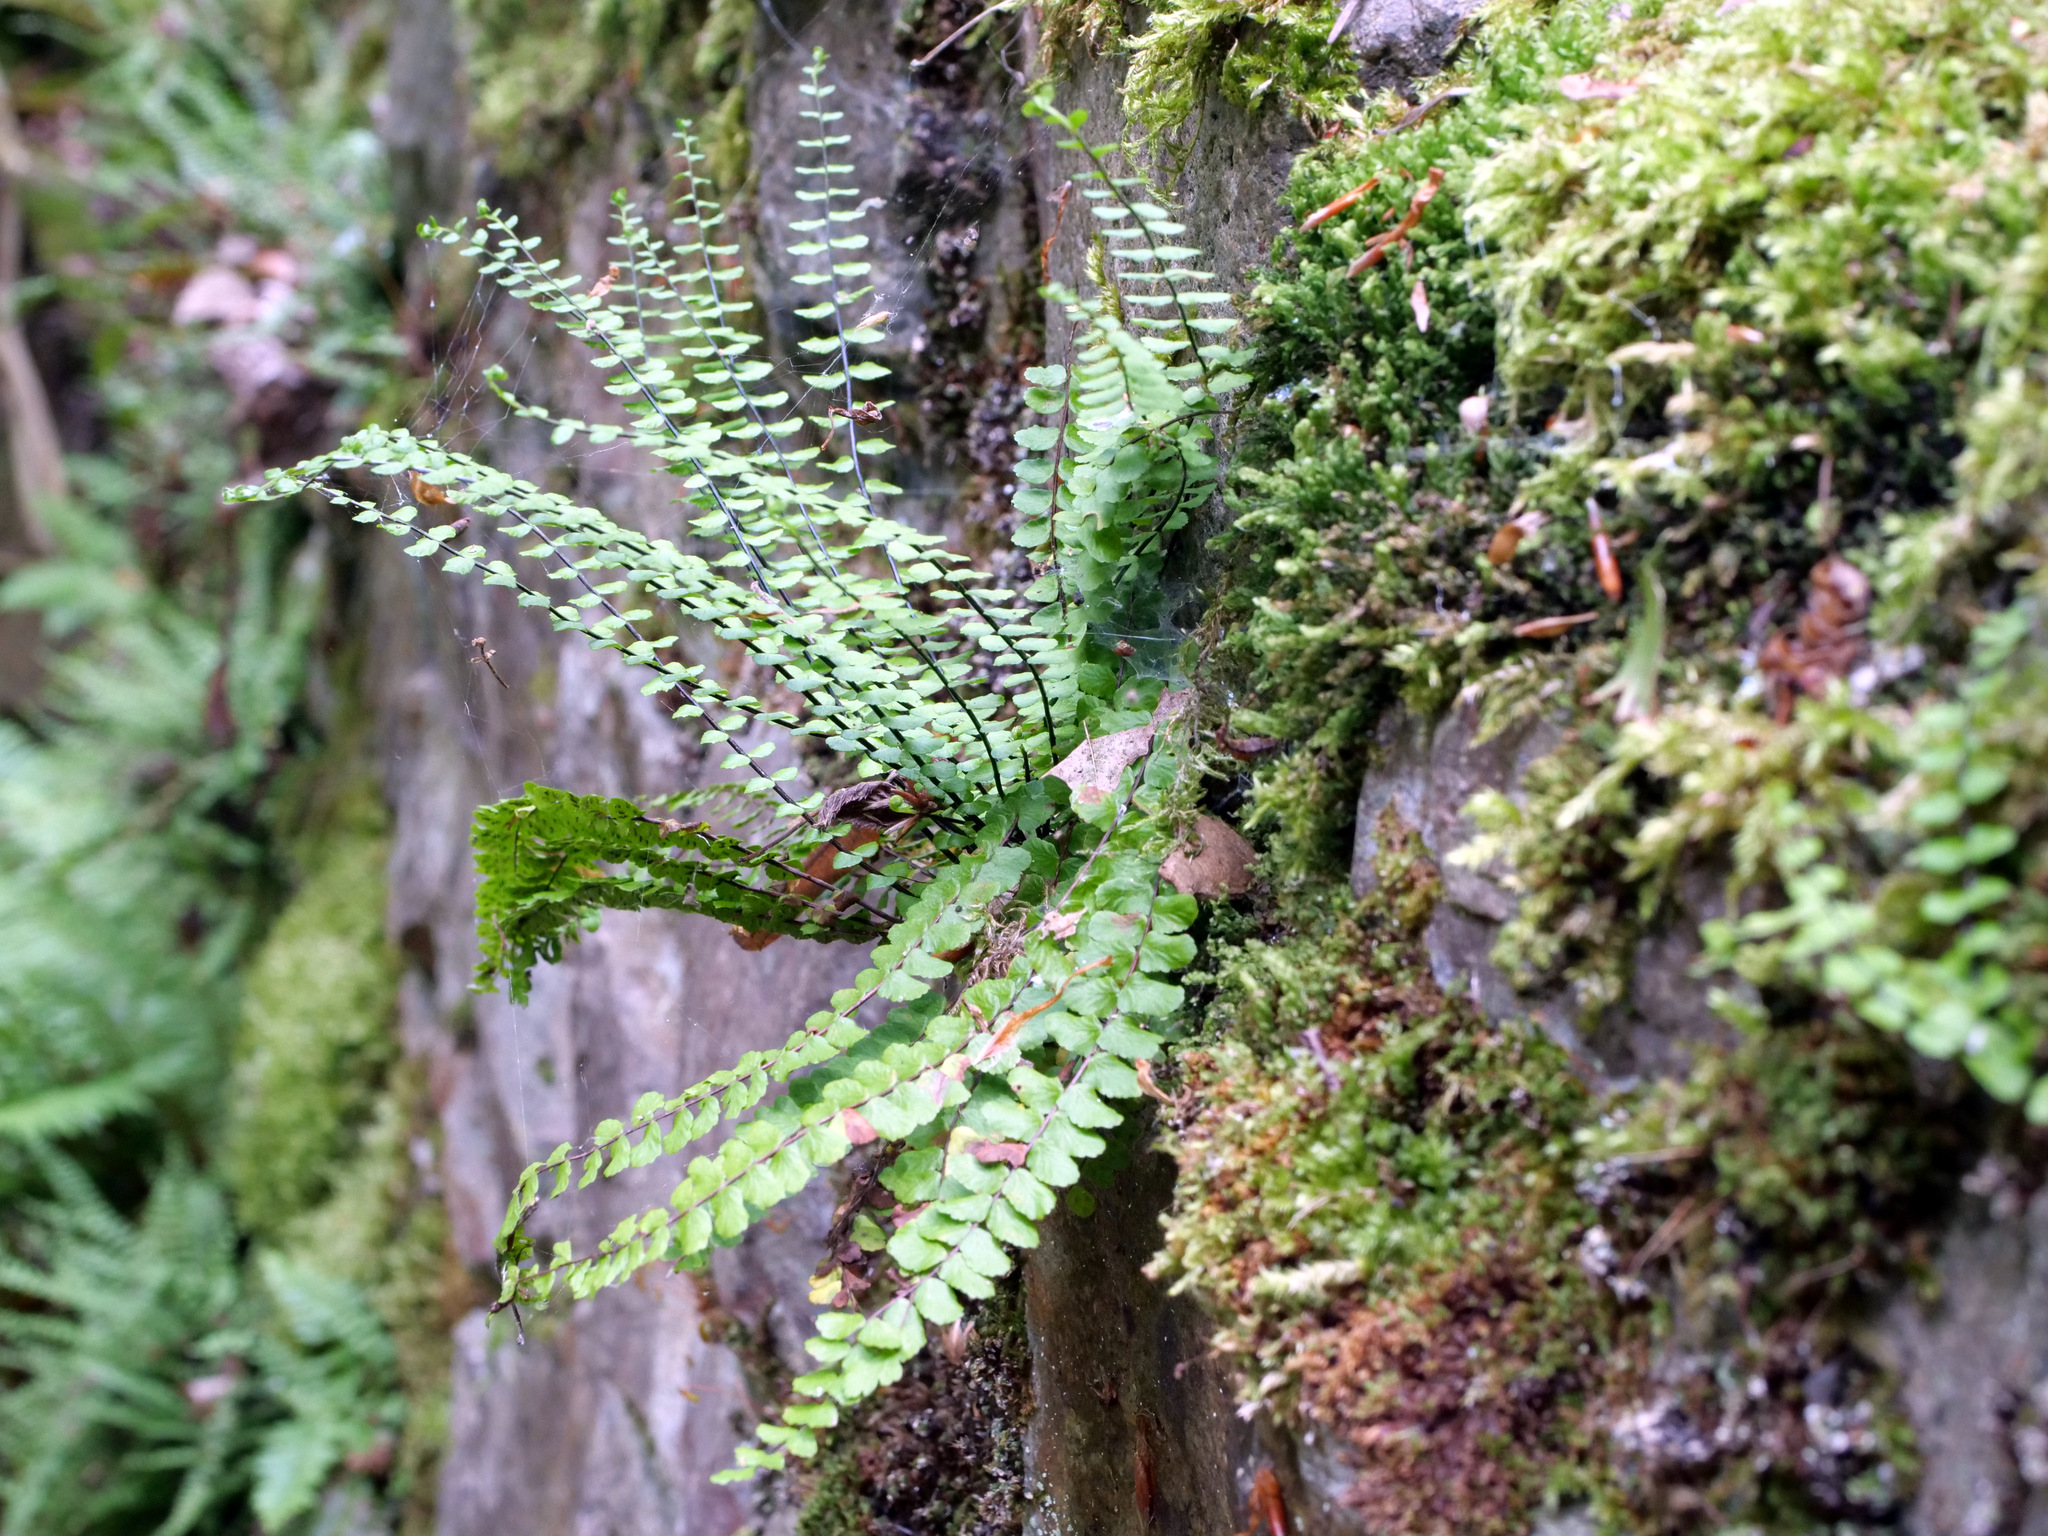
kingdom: Plantae
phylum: Tracheophyta
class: Polypodiopsida
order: Polypodiales
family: Aspleniaceae
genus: Asplenium
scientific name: Asplenium trichomanes
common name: Maidenhair spleenwort
